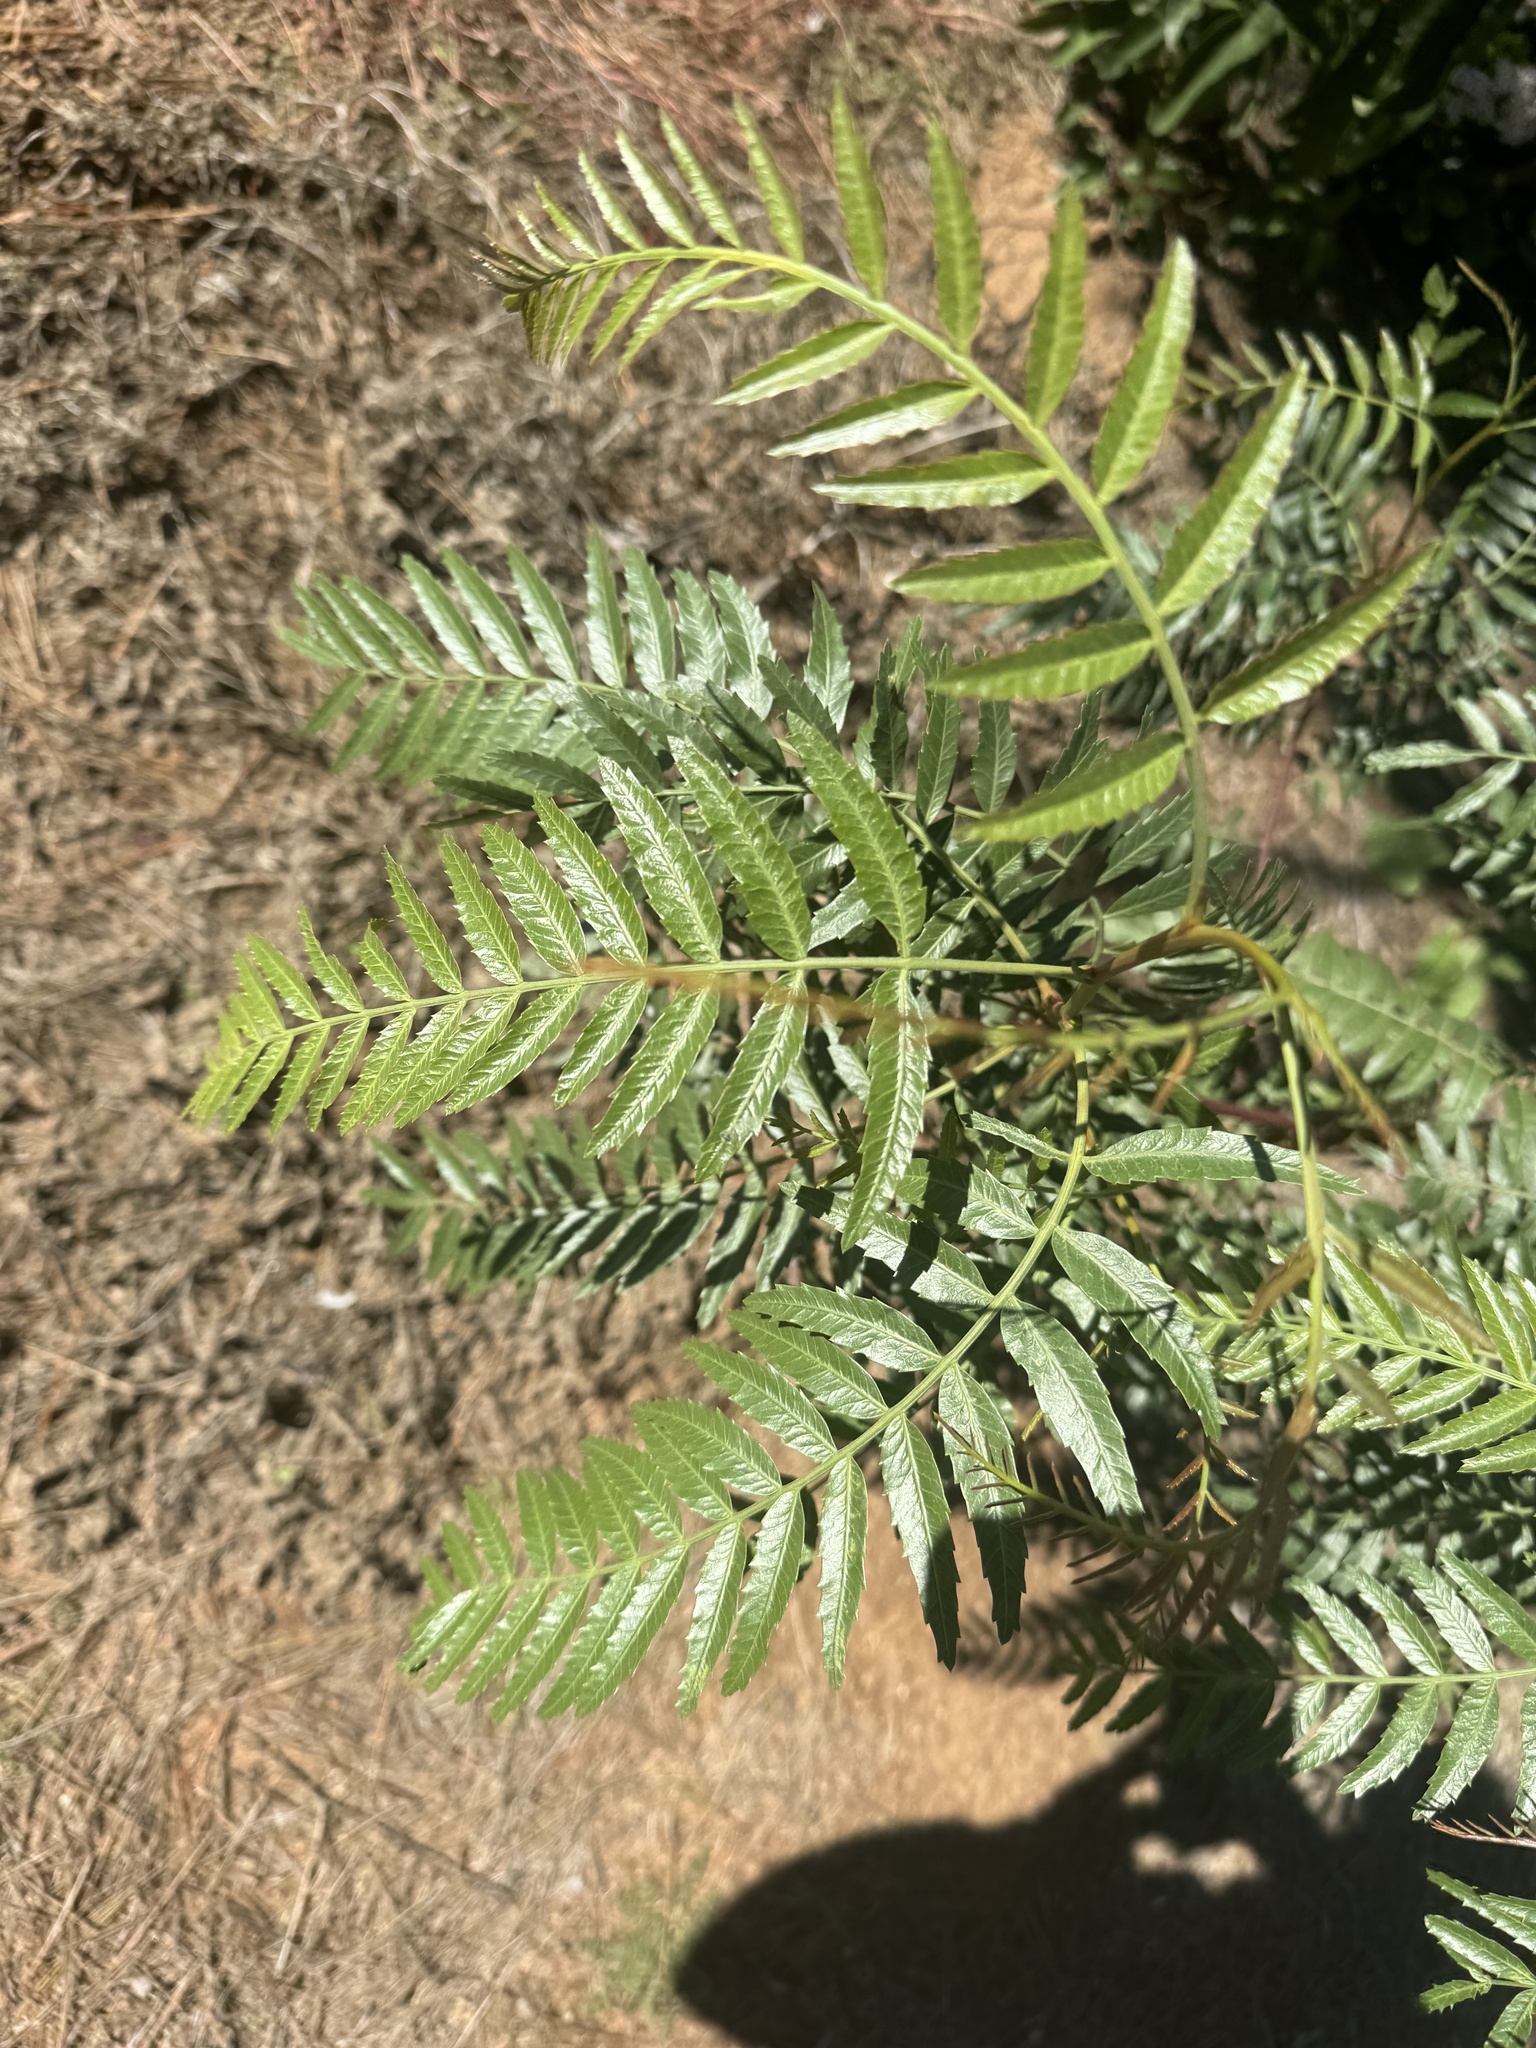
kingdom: Plantae
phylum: Tracheophyta
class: Magnoliopsida
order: Sapindales
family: Anacardiaceae
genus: Schinus
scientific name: Schinus molle
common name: Peruvian peppertree
